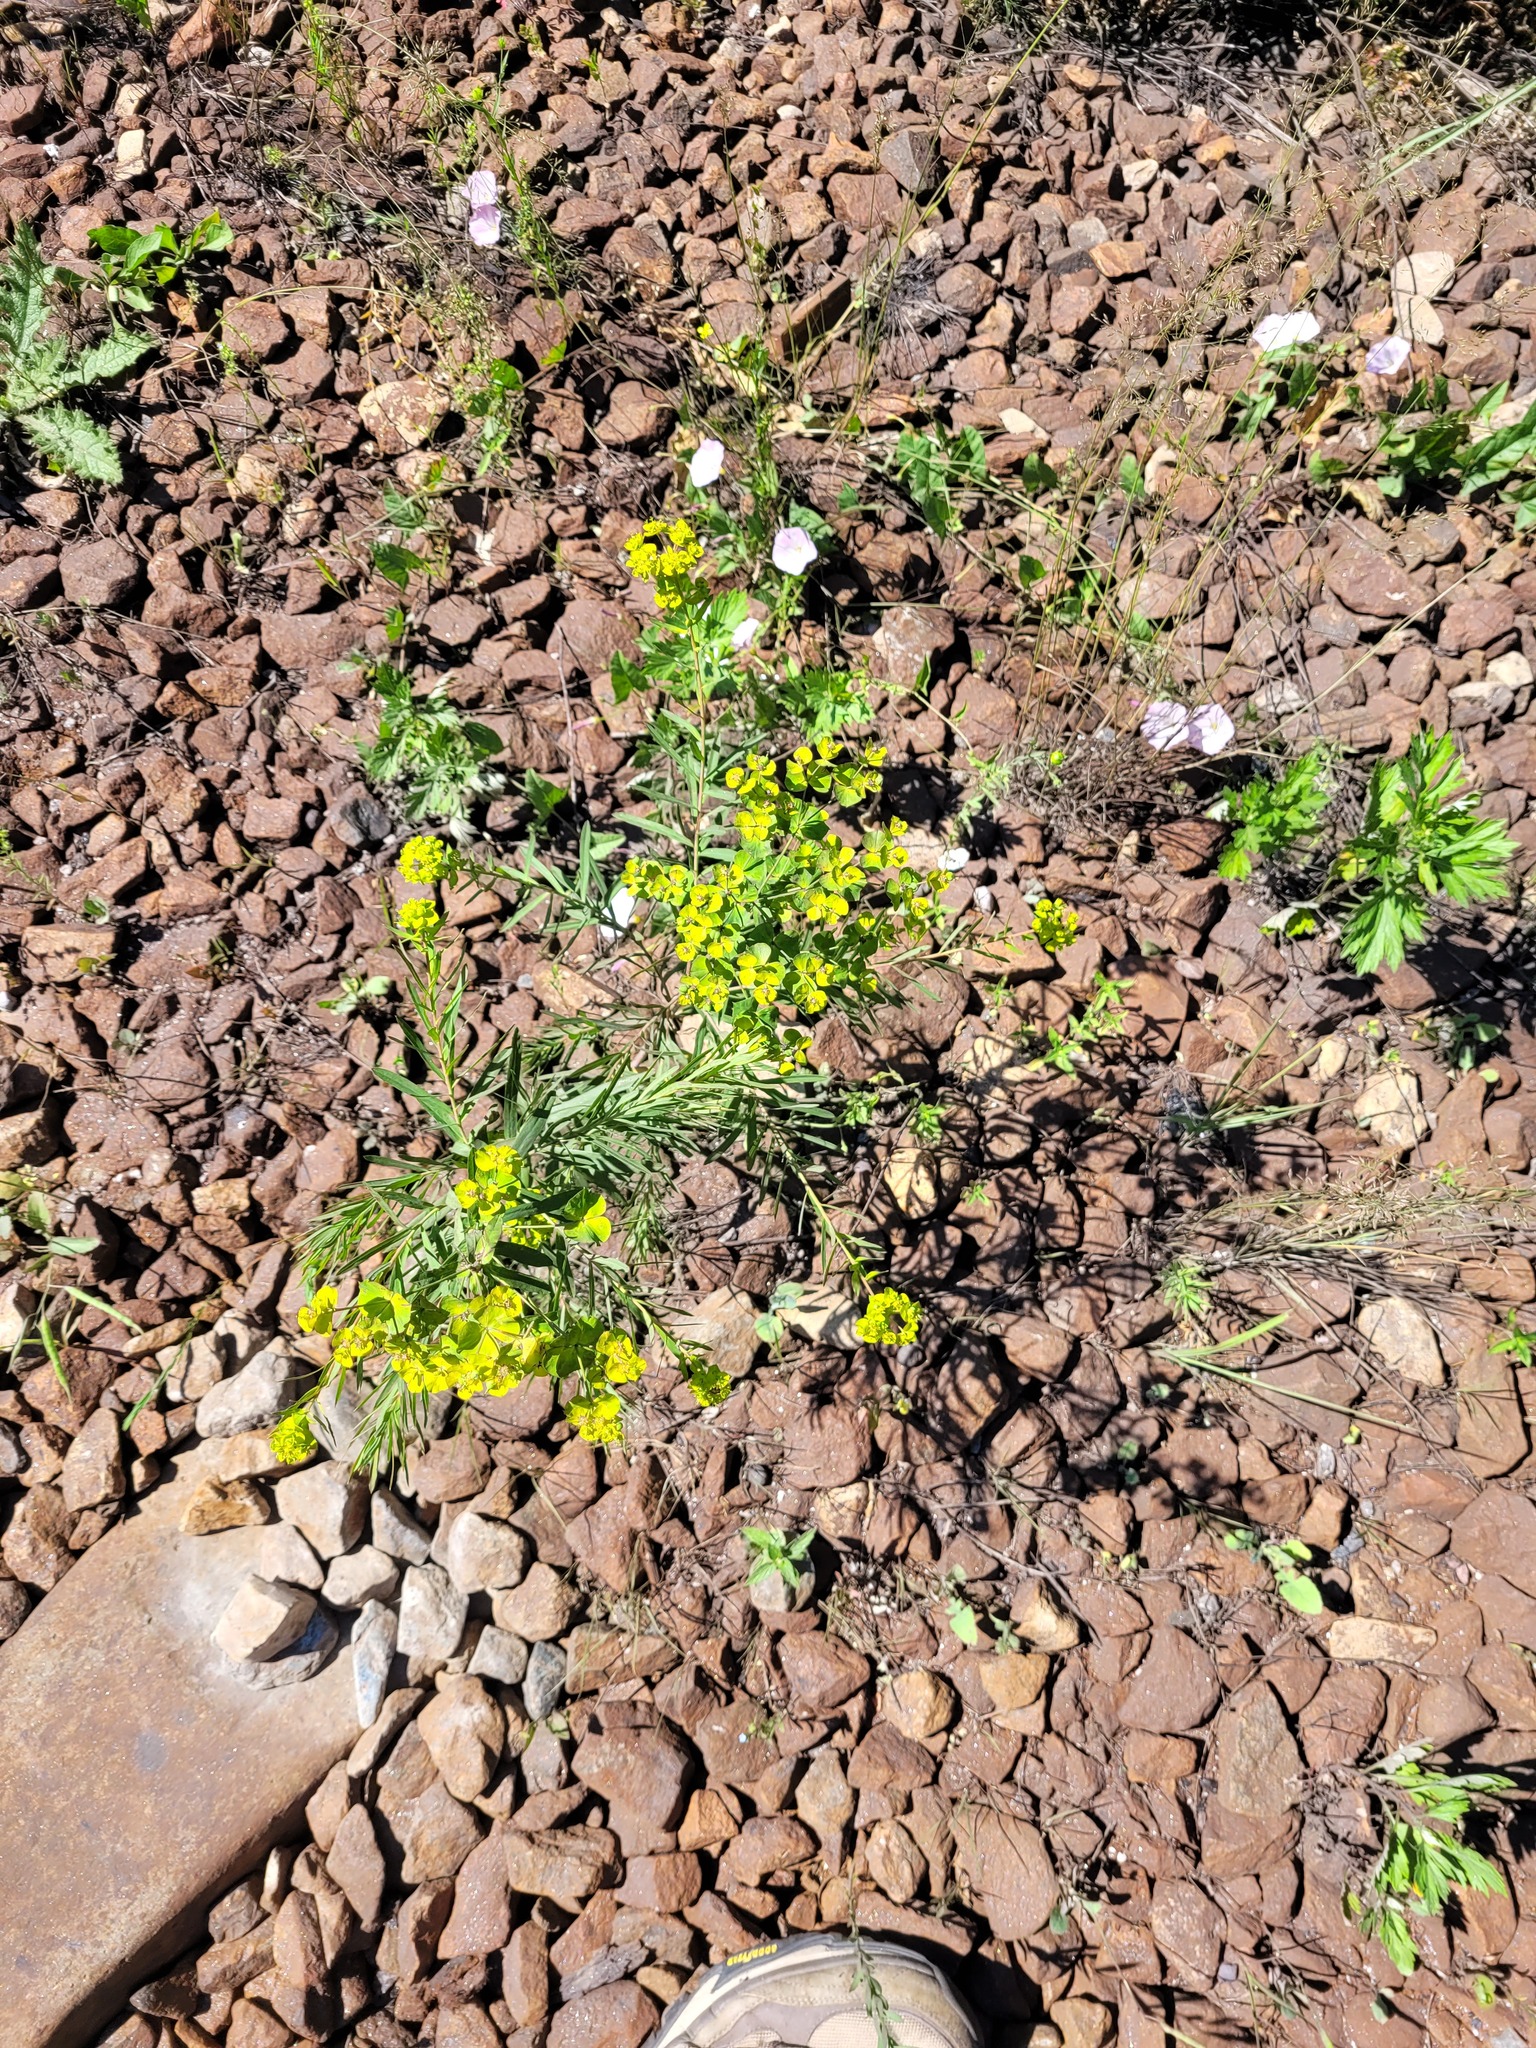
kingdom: Plantae
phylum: Tracheophyta
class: Magnoliopsida
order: Malpighiales
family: Euphorbiaceae
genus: Euphorbia
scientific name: Euphorbia virgata
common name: Leafy spurge
